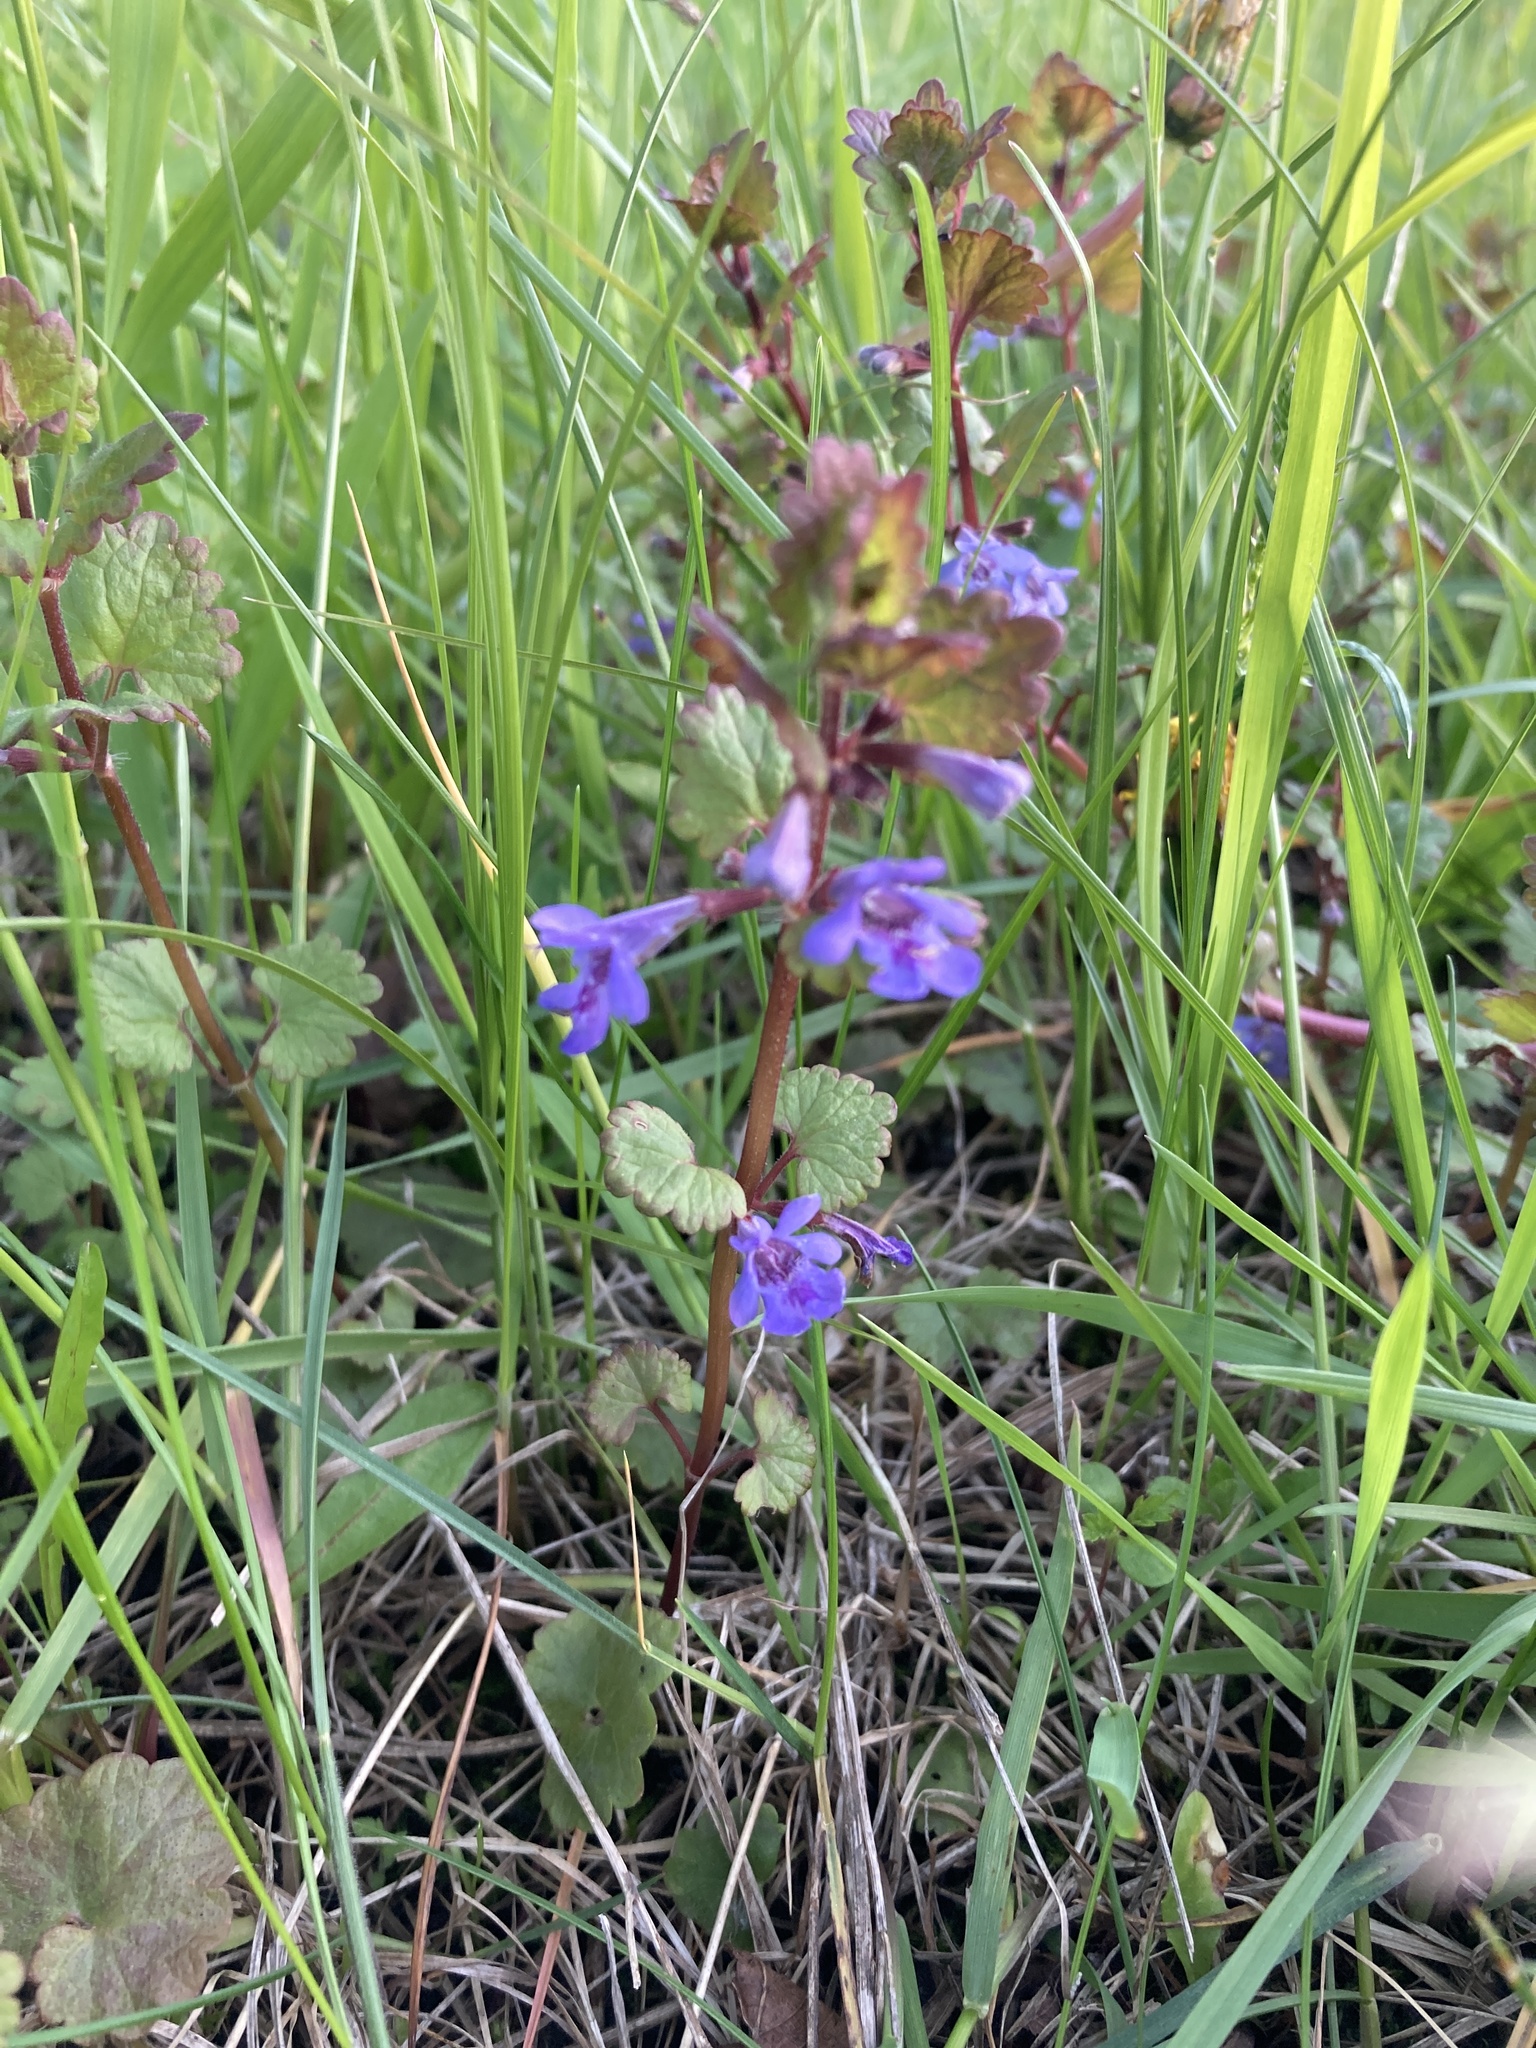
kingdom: Plantae
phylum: Tracheophyta
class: Magnoliopsida
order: Lamiales
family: Lamiaceae
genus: Glechoma
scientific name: Glechoma hederacea
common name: Ground ivy
